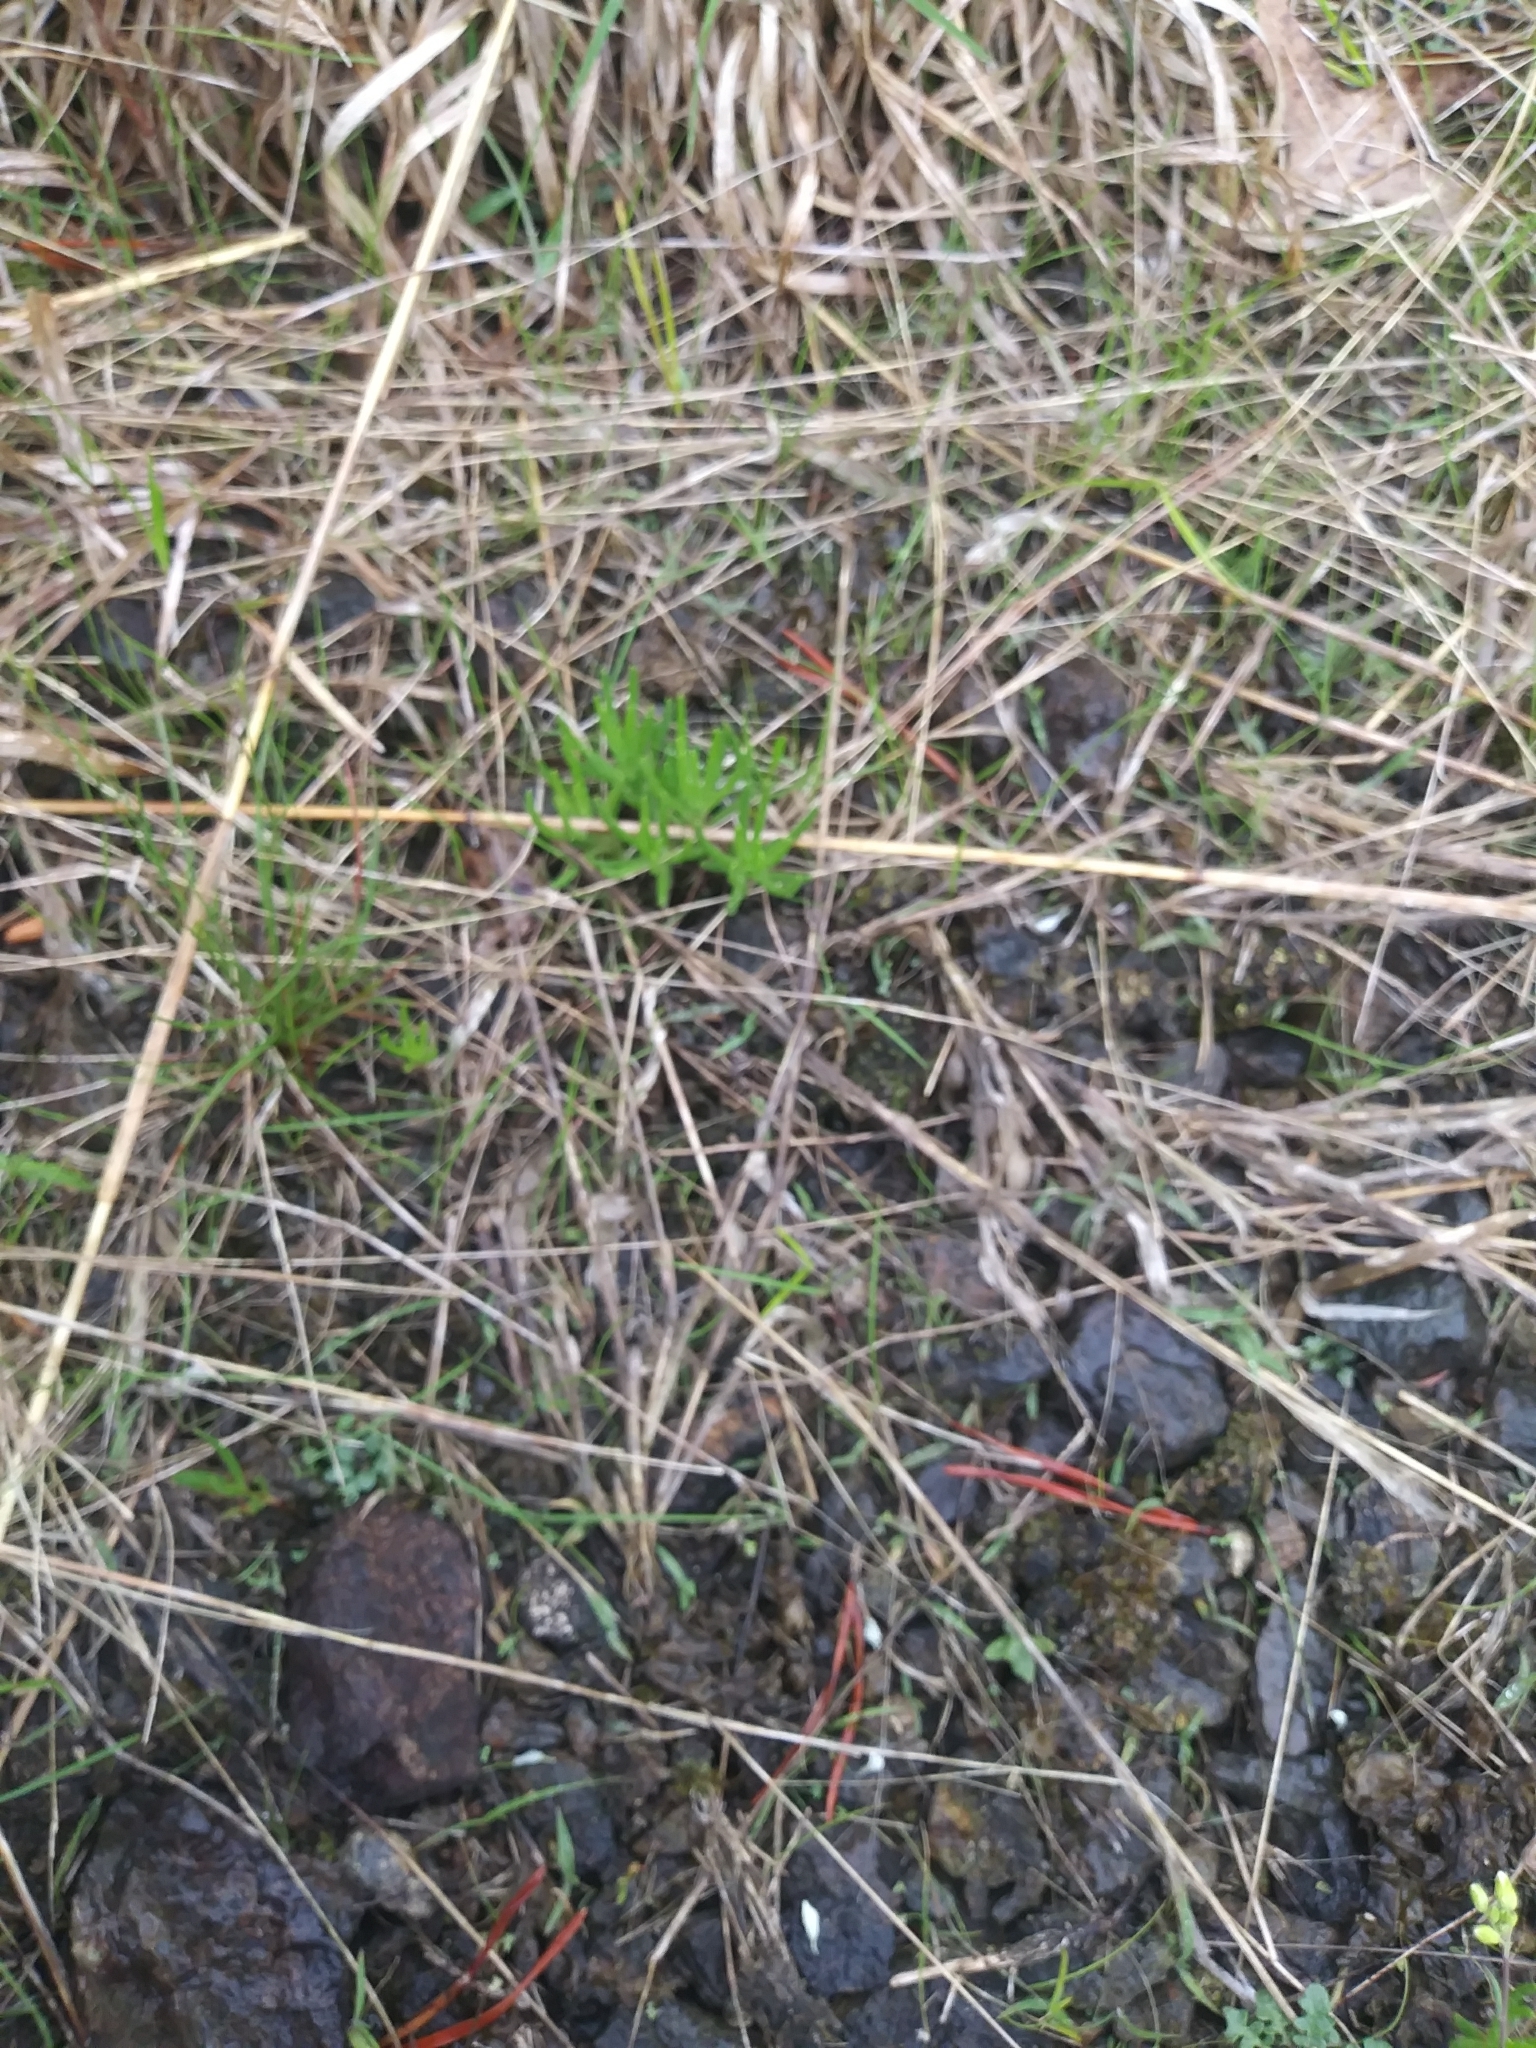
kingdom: Plantae
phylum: Tracheophyta
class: Magnoliopsida
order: Caryophyllales
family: Montiaceae
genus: Phemeranthus
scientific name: Phemeranthus teretifolius
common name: Quill fameflower
